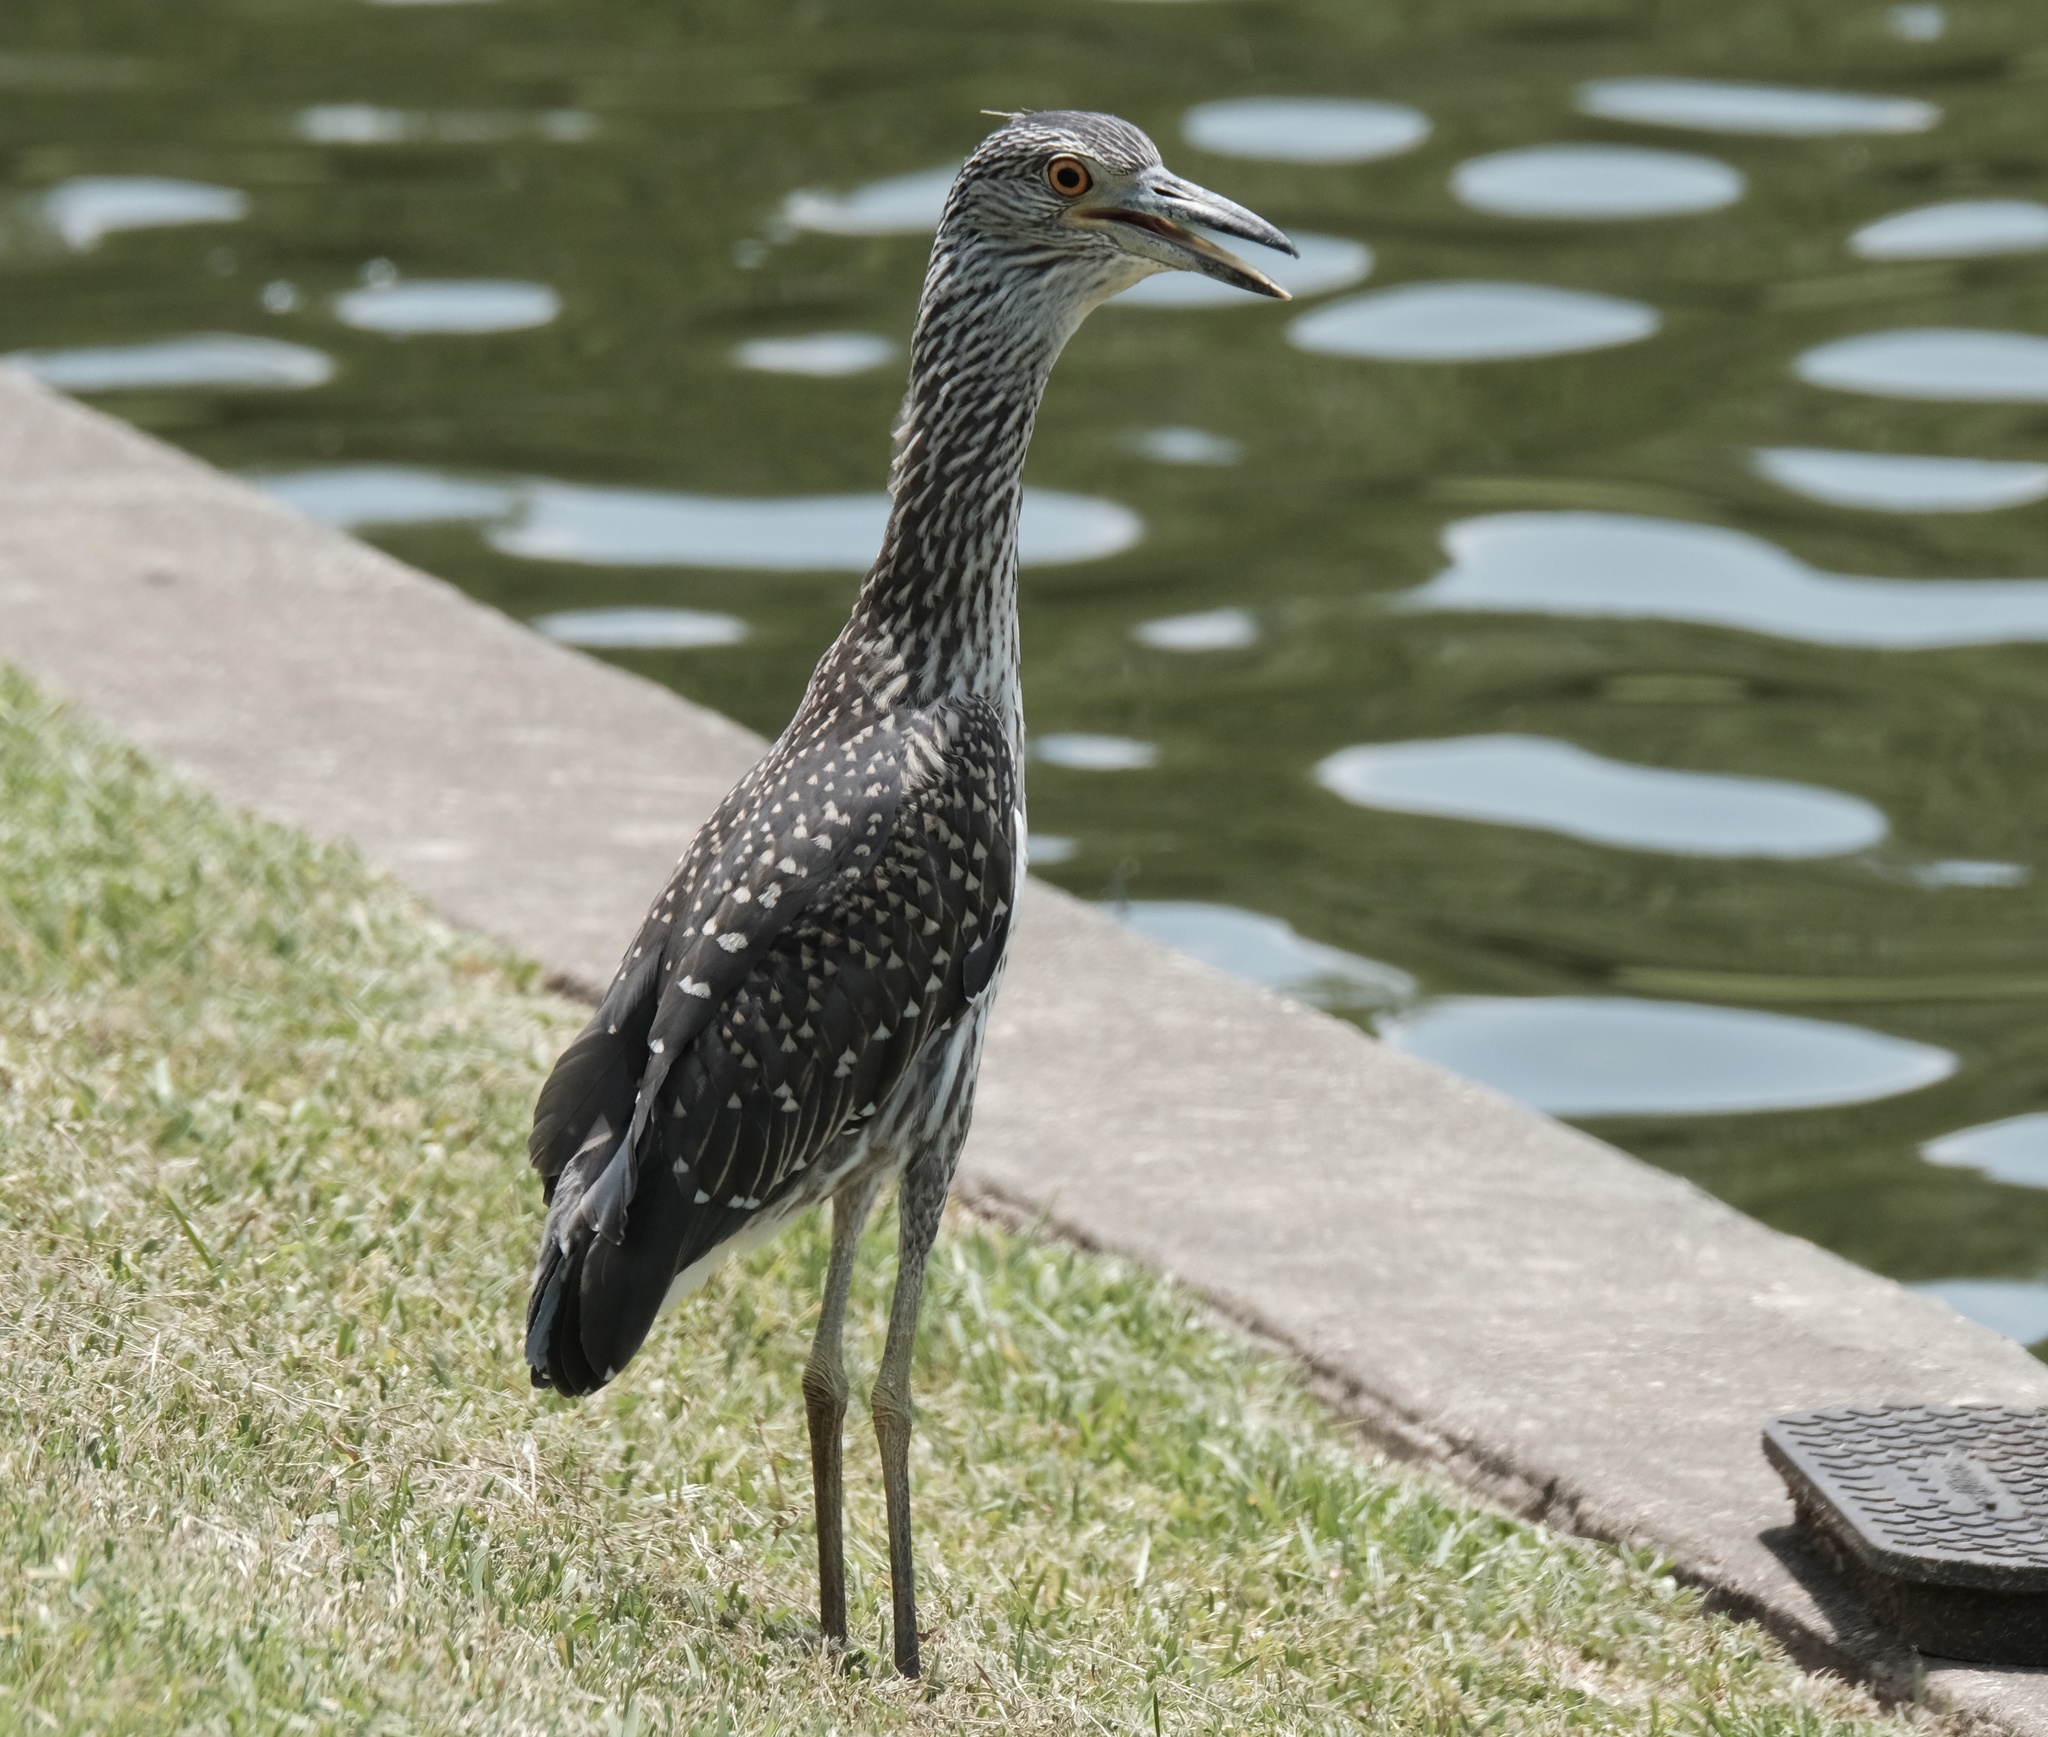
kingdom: Animalia
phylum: Chordata
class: Aves
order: Pelecaniformes
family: Ardeidae
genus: Nyctanassa
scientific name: Nyctanassa violacea
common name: Yellow-crowned night heron
